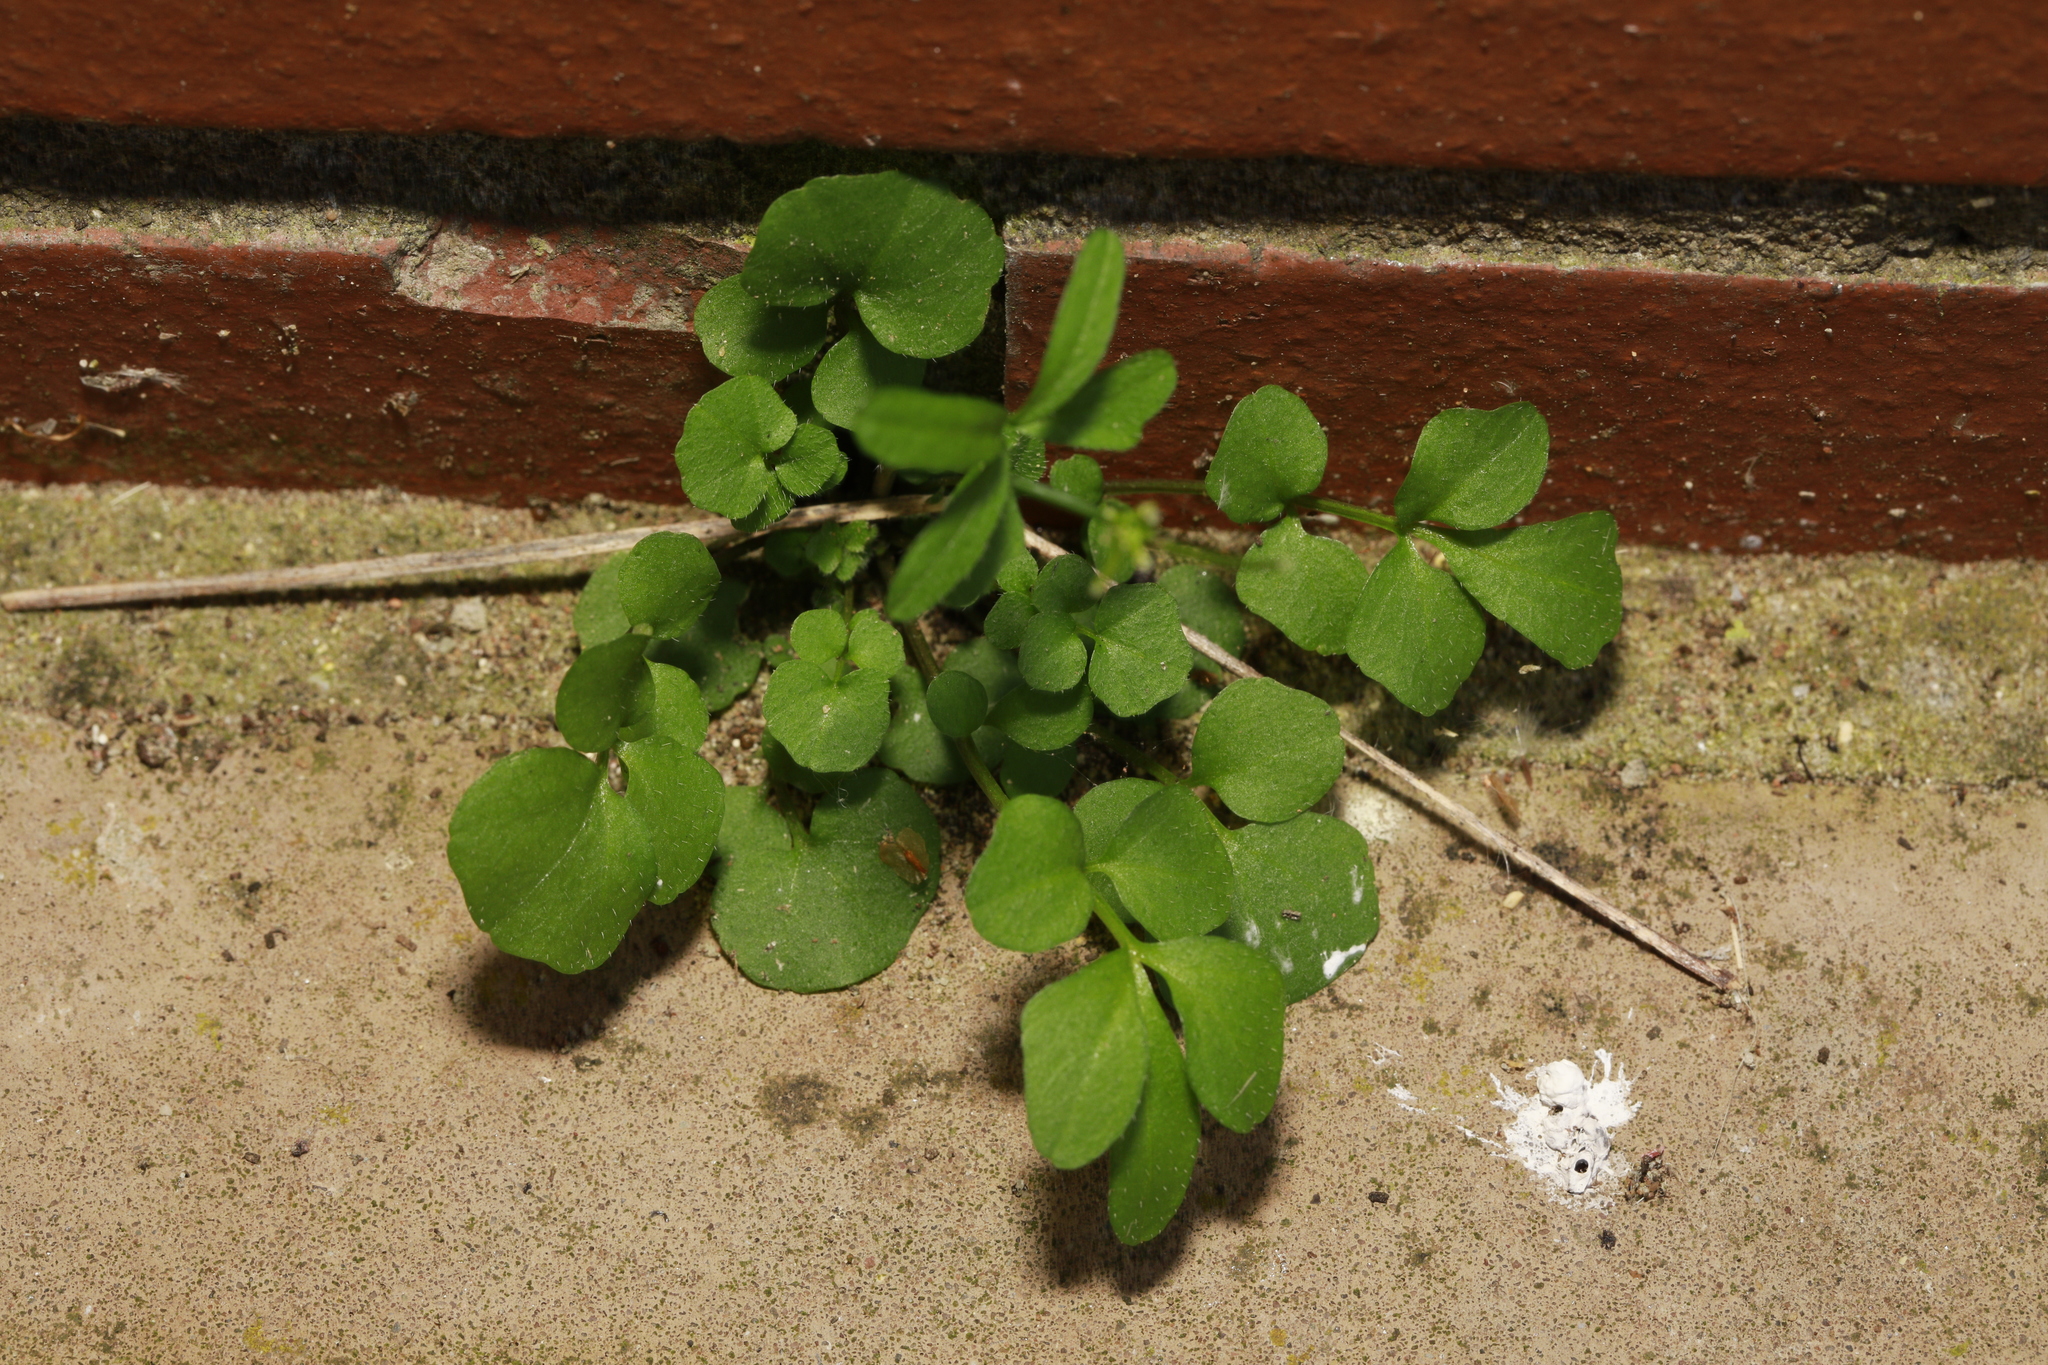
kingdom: Plantae
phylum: Tracheophyta
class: Magnoliopsida
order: Brassicales
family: Brassicaceae
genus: Cardamine
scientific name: Cardamine hirsuta
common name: Hairy bittercress
